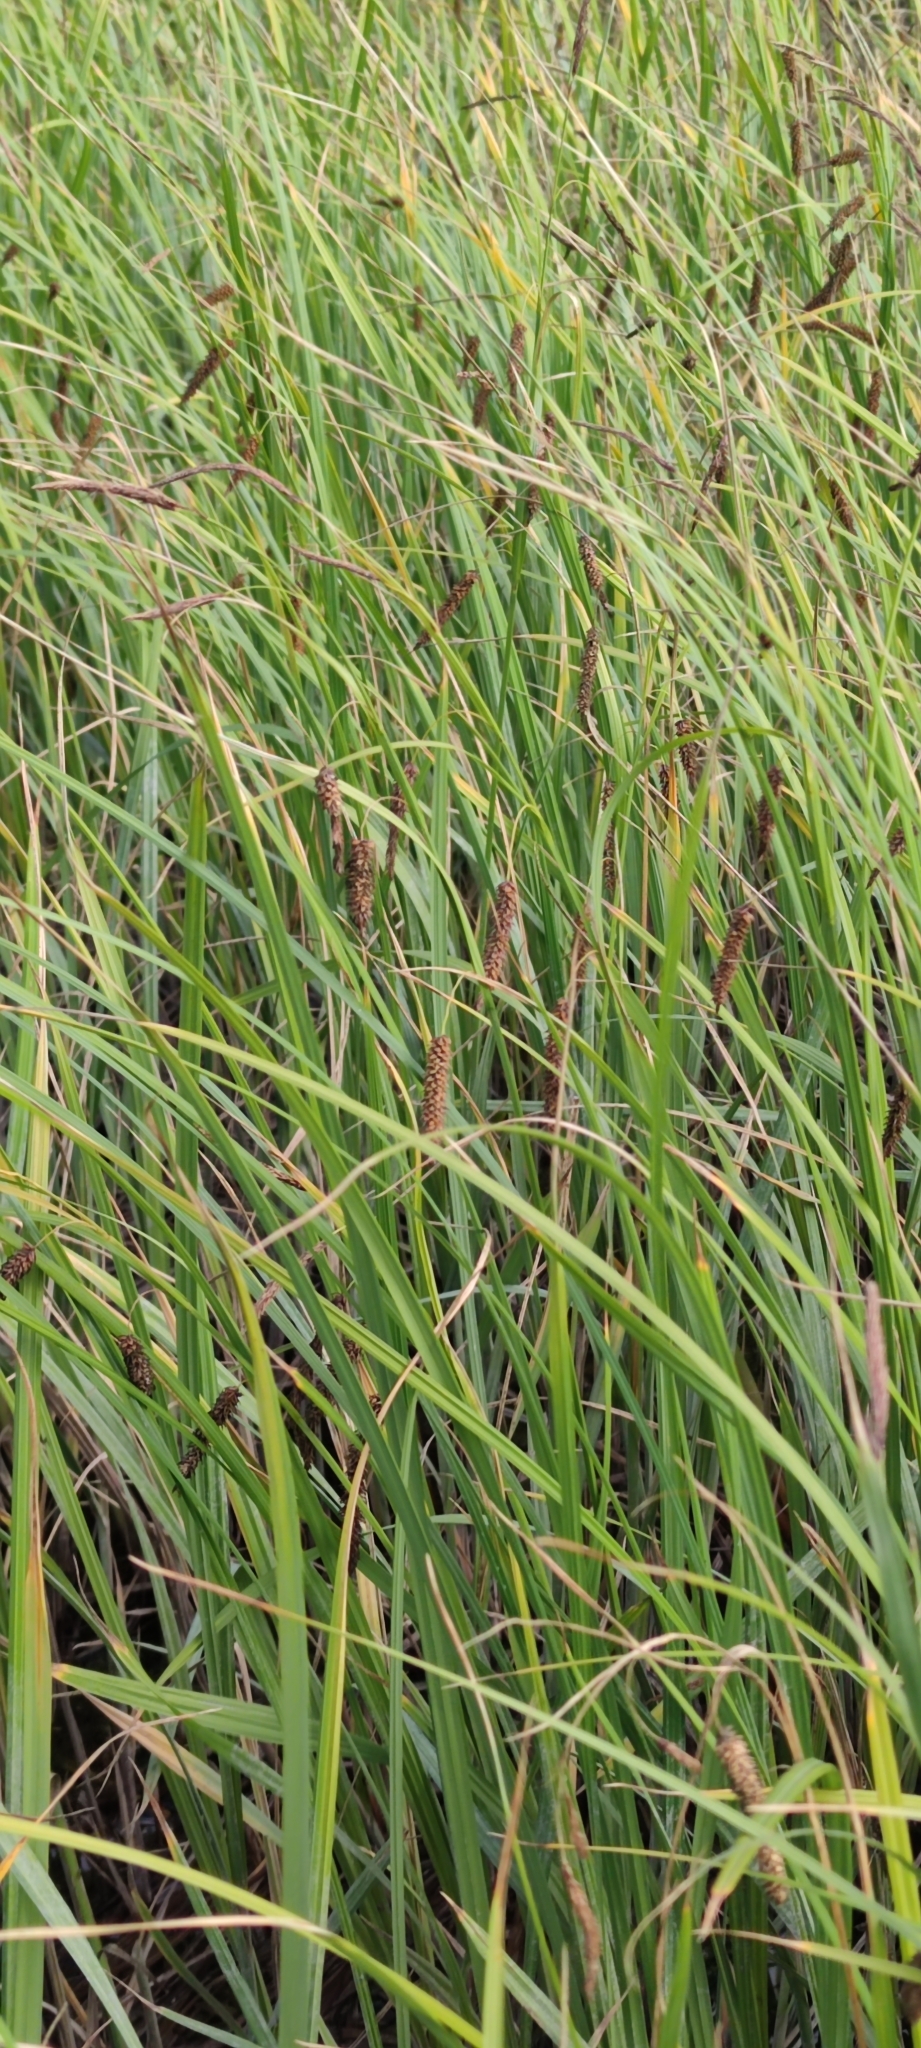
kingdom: Plantae
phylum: Tracheophyta
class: Liliopsida
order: Poales
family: Cyperaceae
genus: Carex
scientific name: Carex lyngbyei
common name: Lyngbye's sedge
